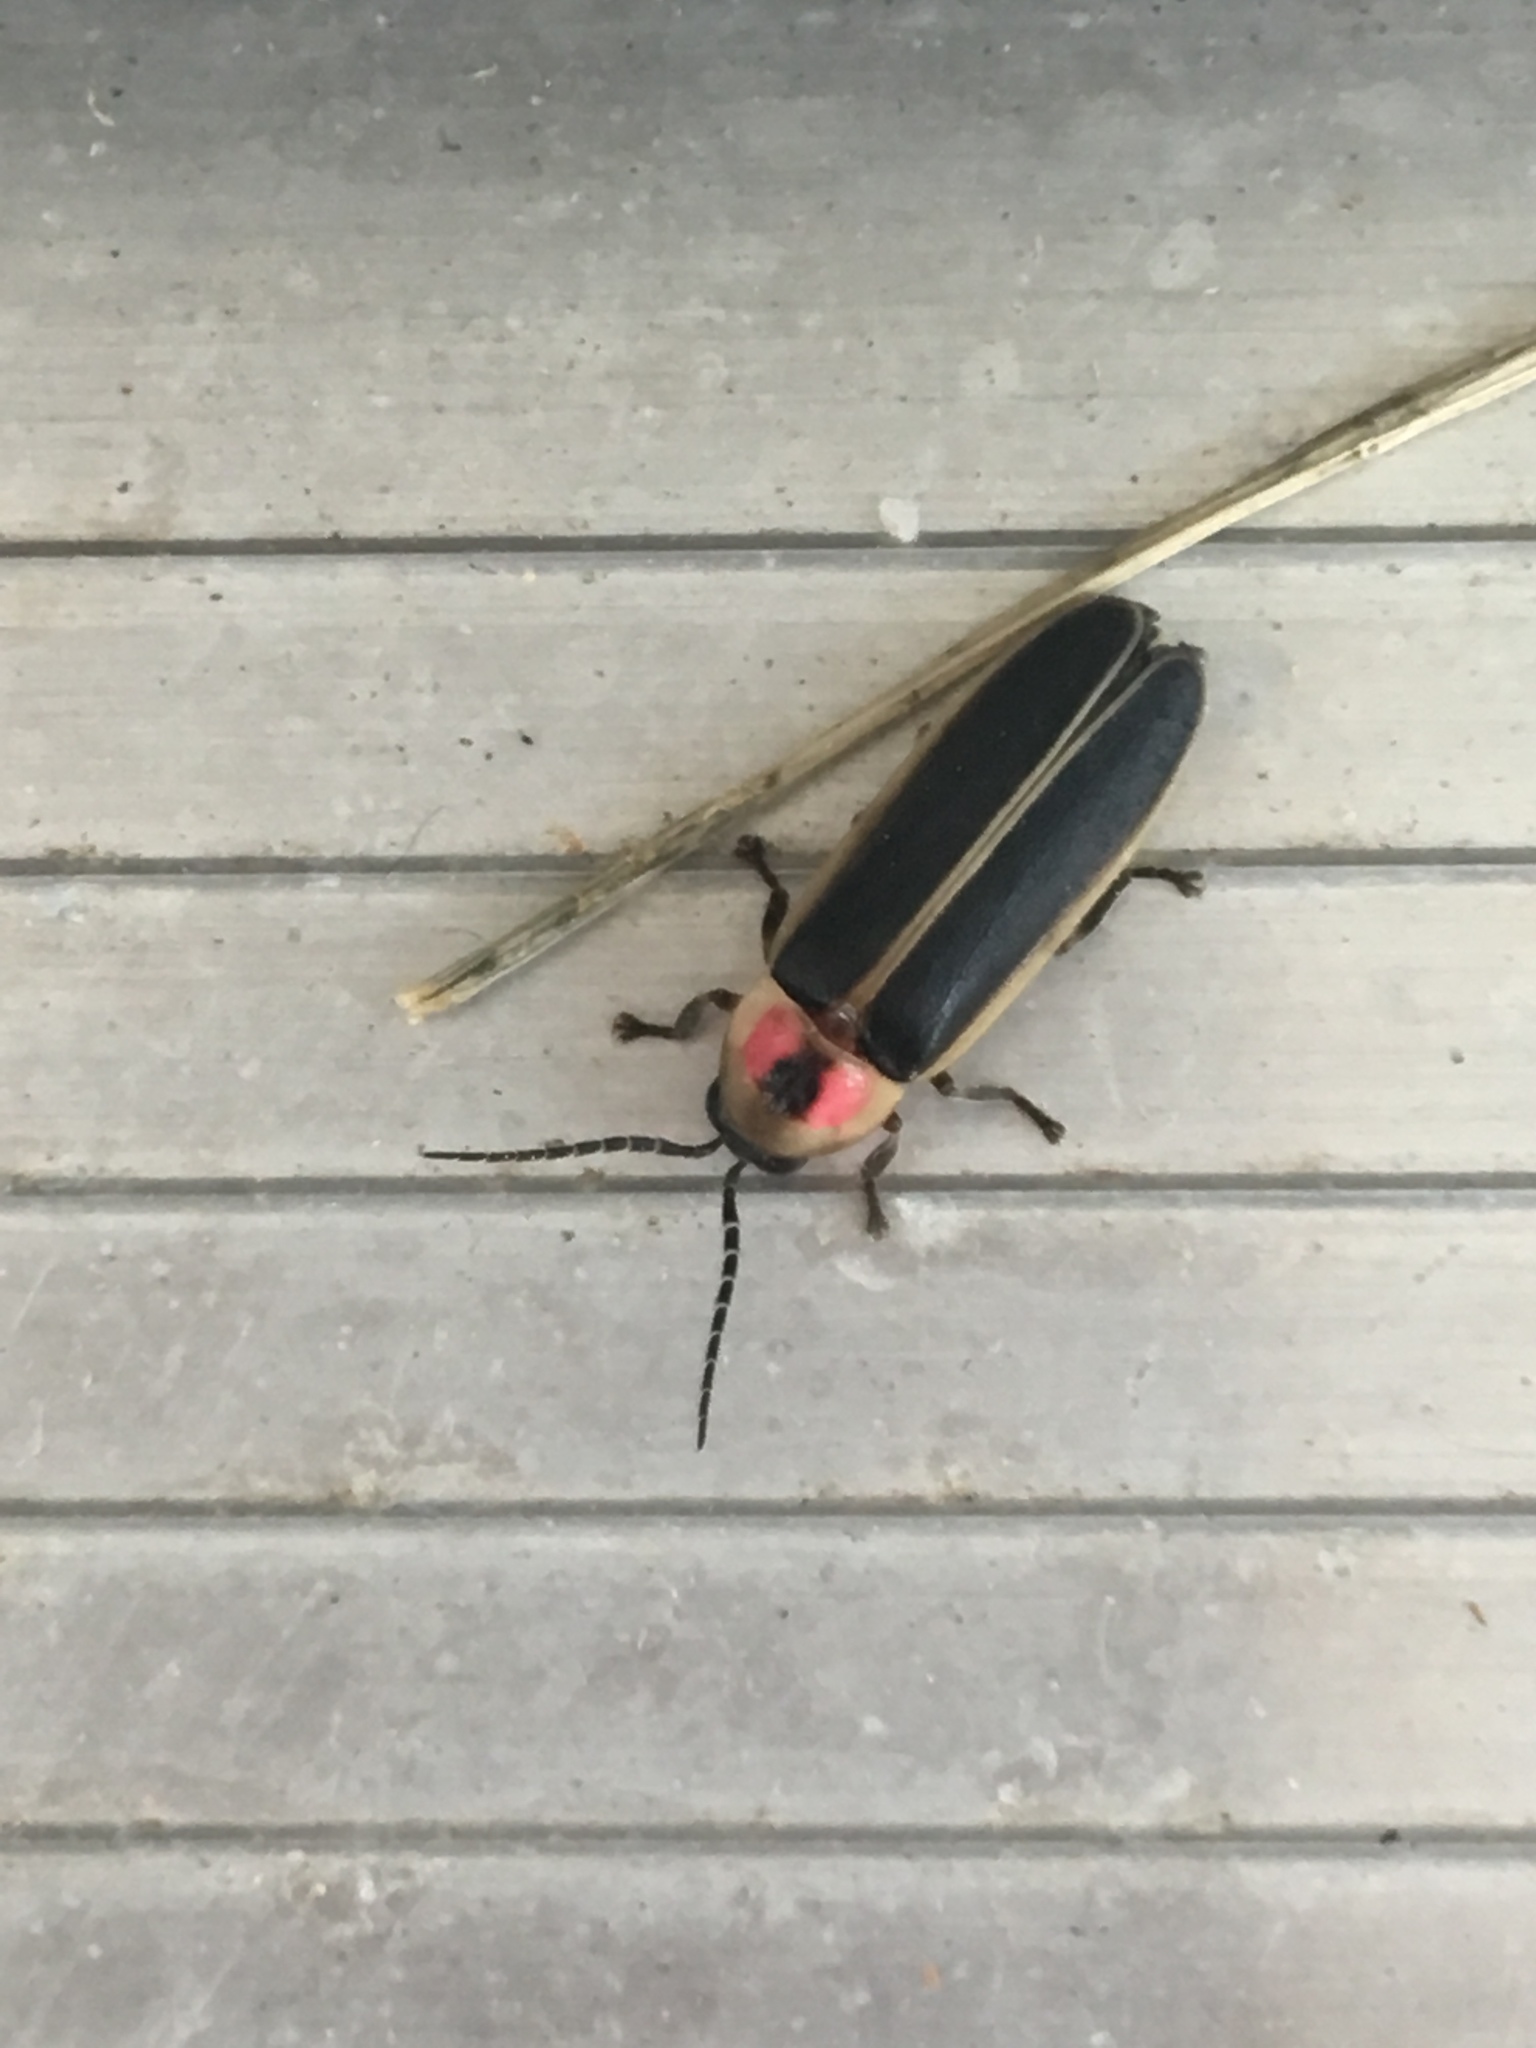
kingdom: Animalia
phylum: Arthropoda
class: Insecta
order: Coleoptera
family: Lampyridae
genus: Photinus
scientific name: Photinus pyralis
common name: Big dipper firefly
